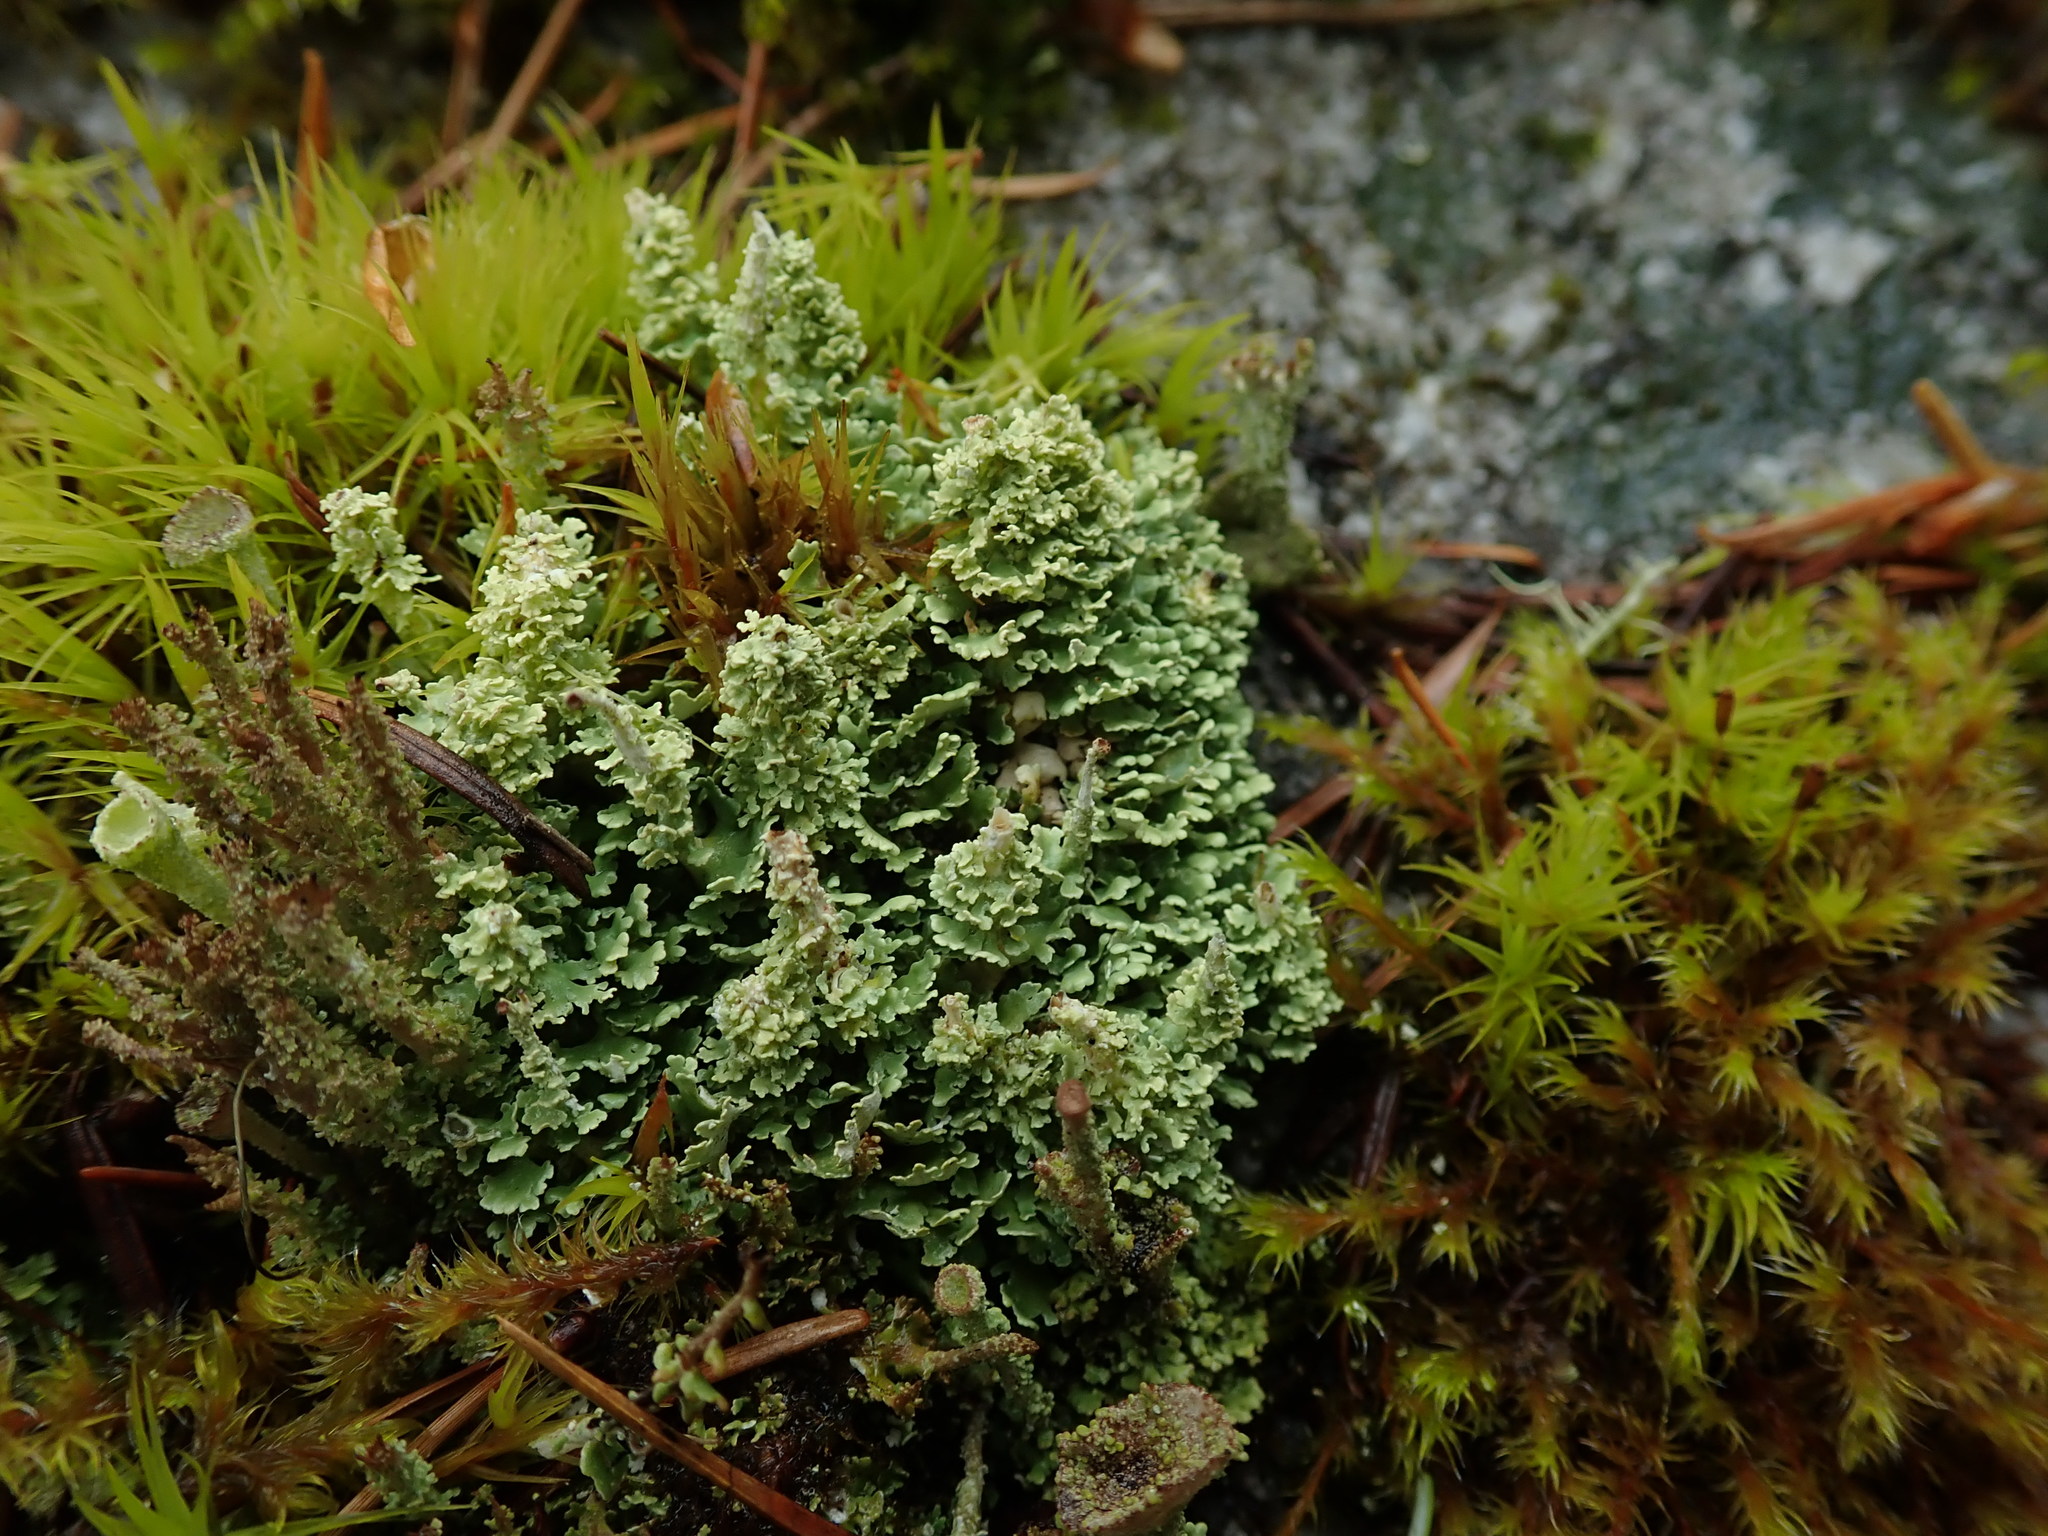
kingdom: Fungi
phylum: Ascomycota
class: Lecanoromycetes
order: Lecanorales
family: Cladoniaceae
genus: Cladonia
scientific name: Cladonia squamosa
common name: Dragon horn
